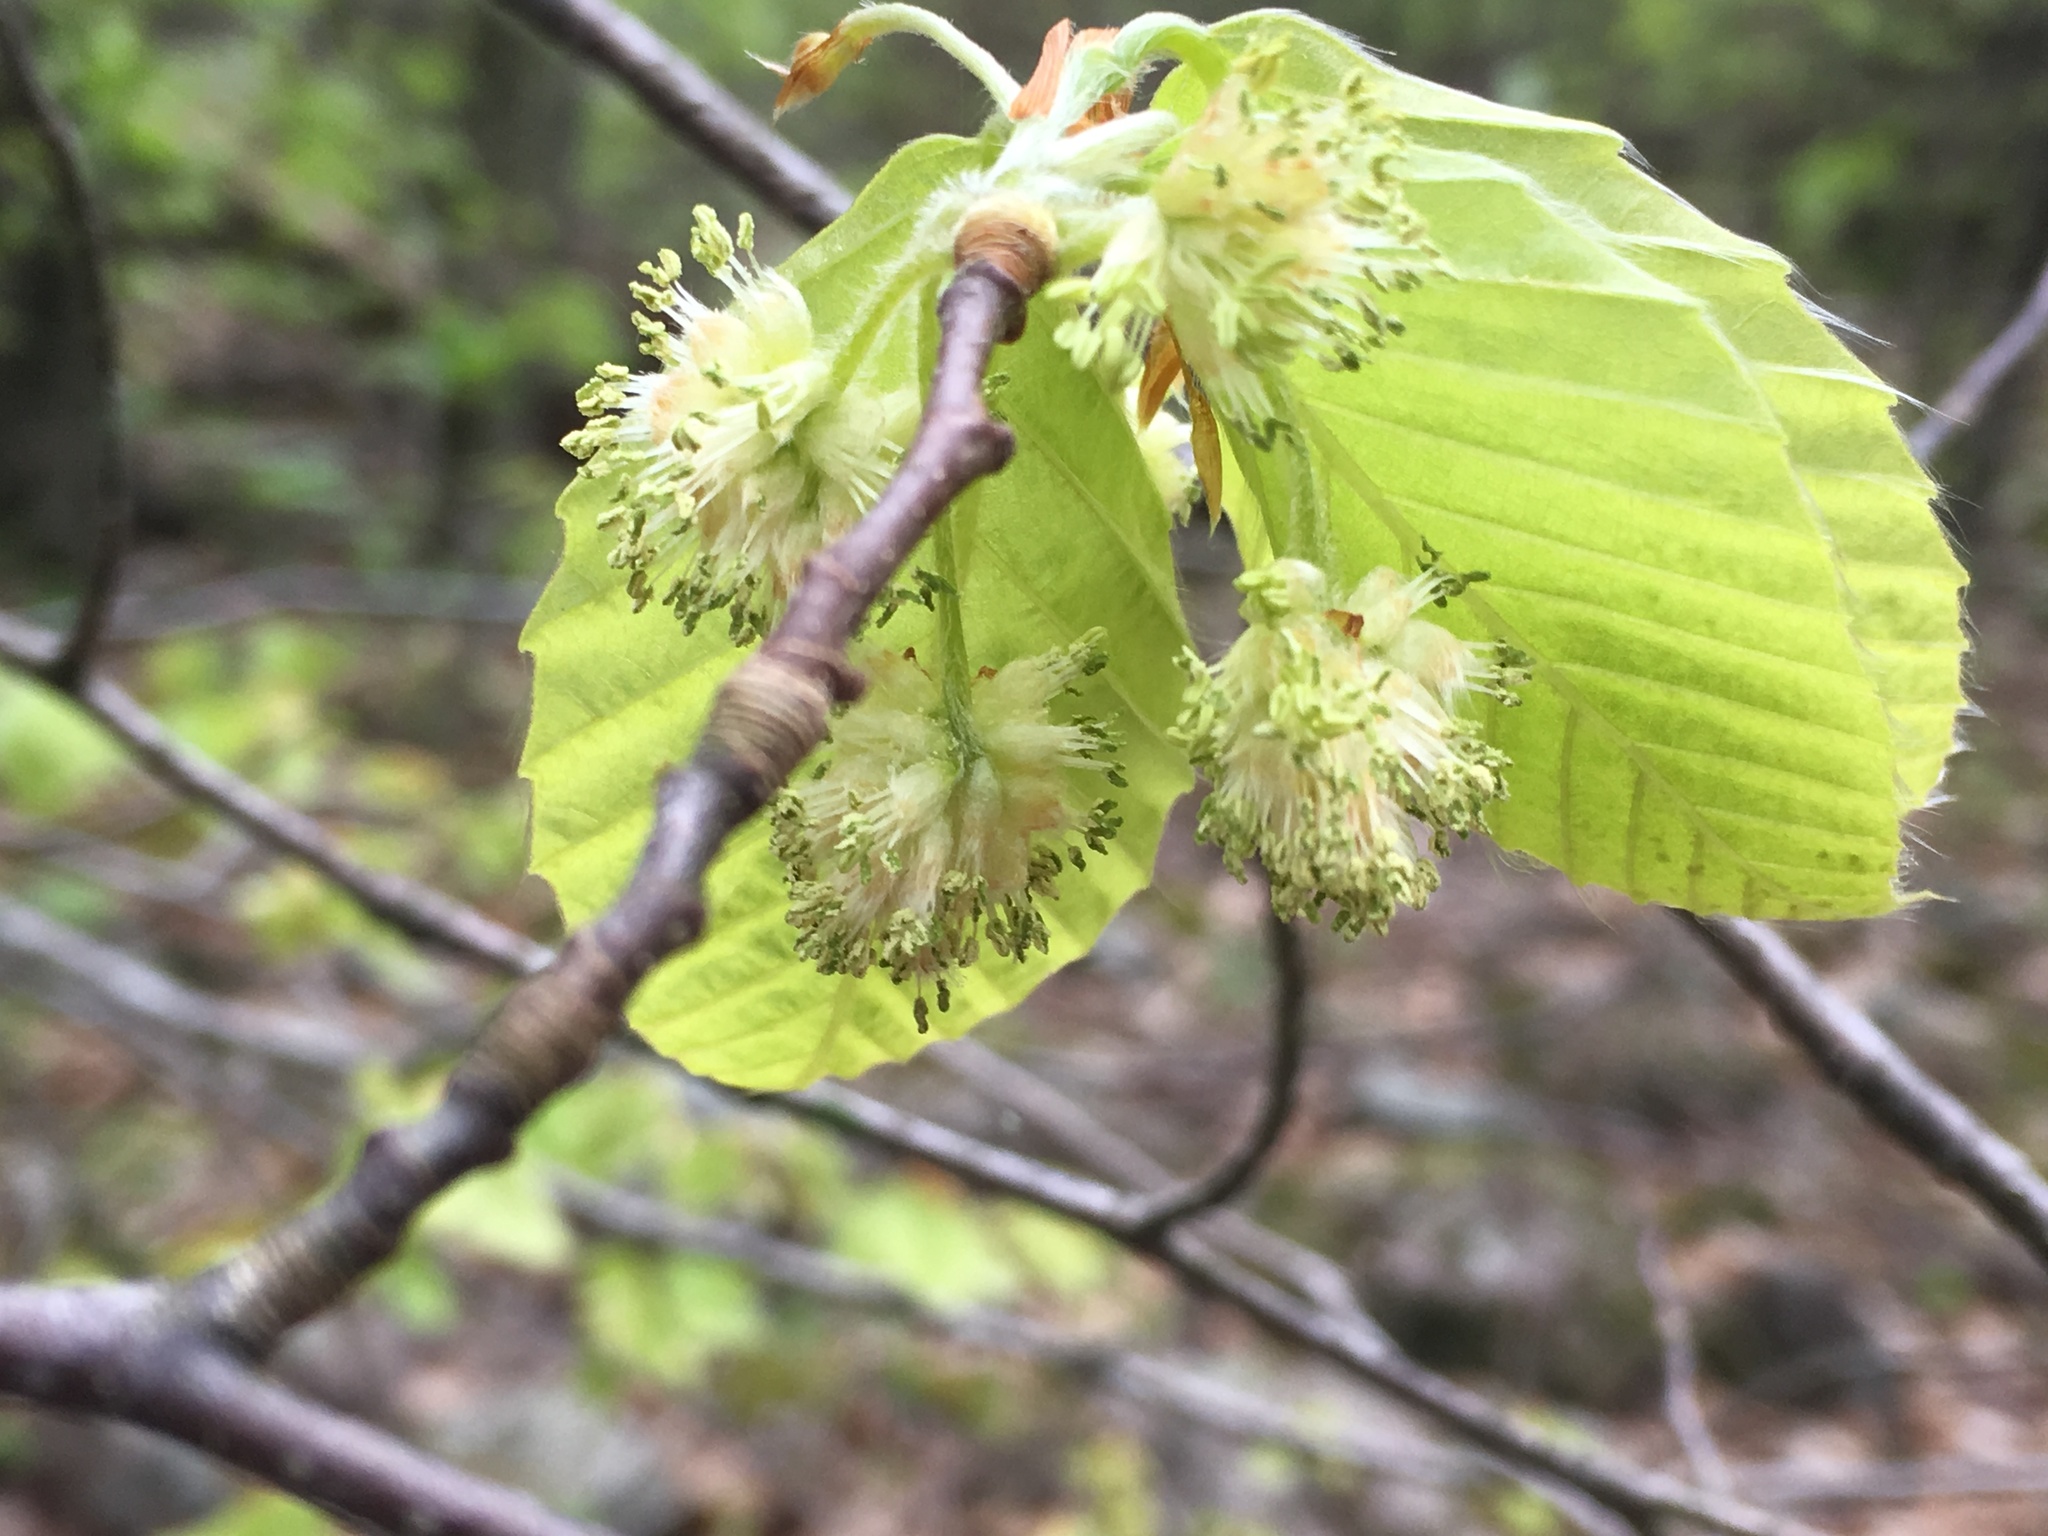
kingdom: Plantae
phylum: Tracheophyta
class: Magnoliopsida
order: Fagales
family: Fagaceae
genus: Fagus
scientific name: Fagus grandifolia
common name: American beech
